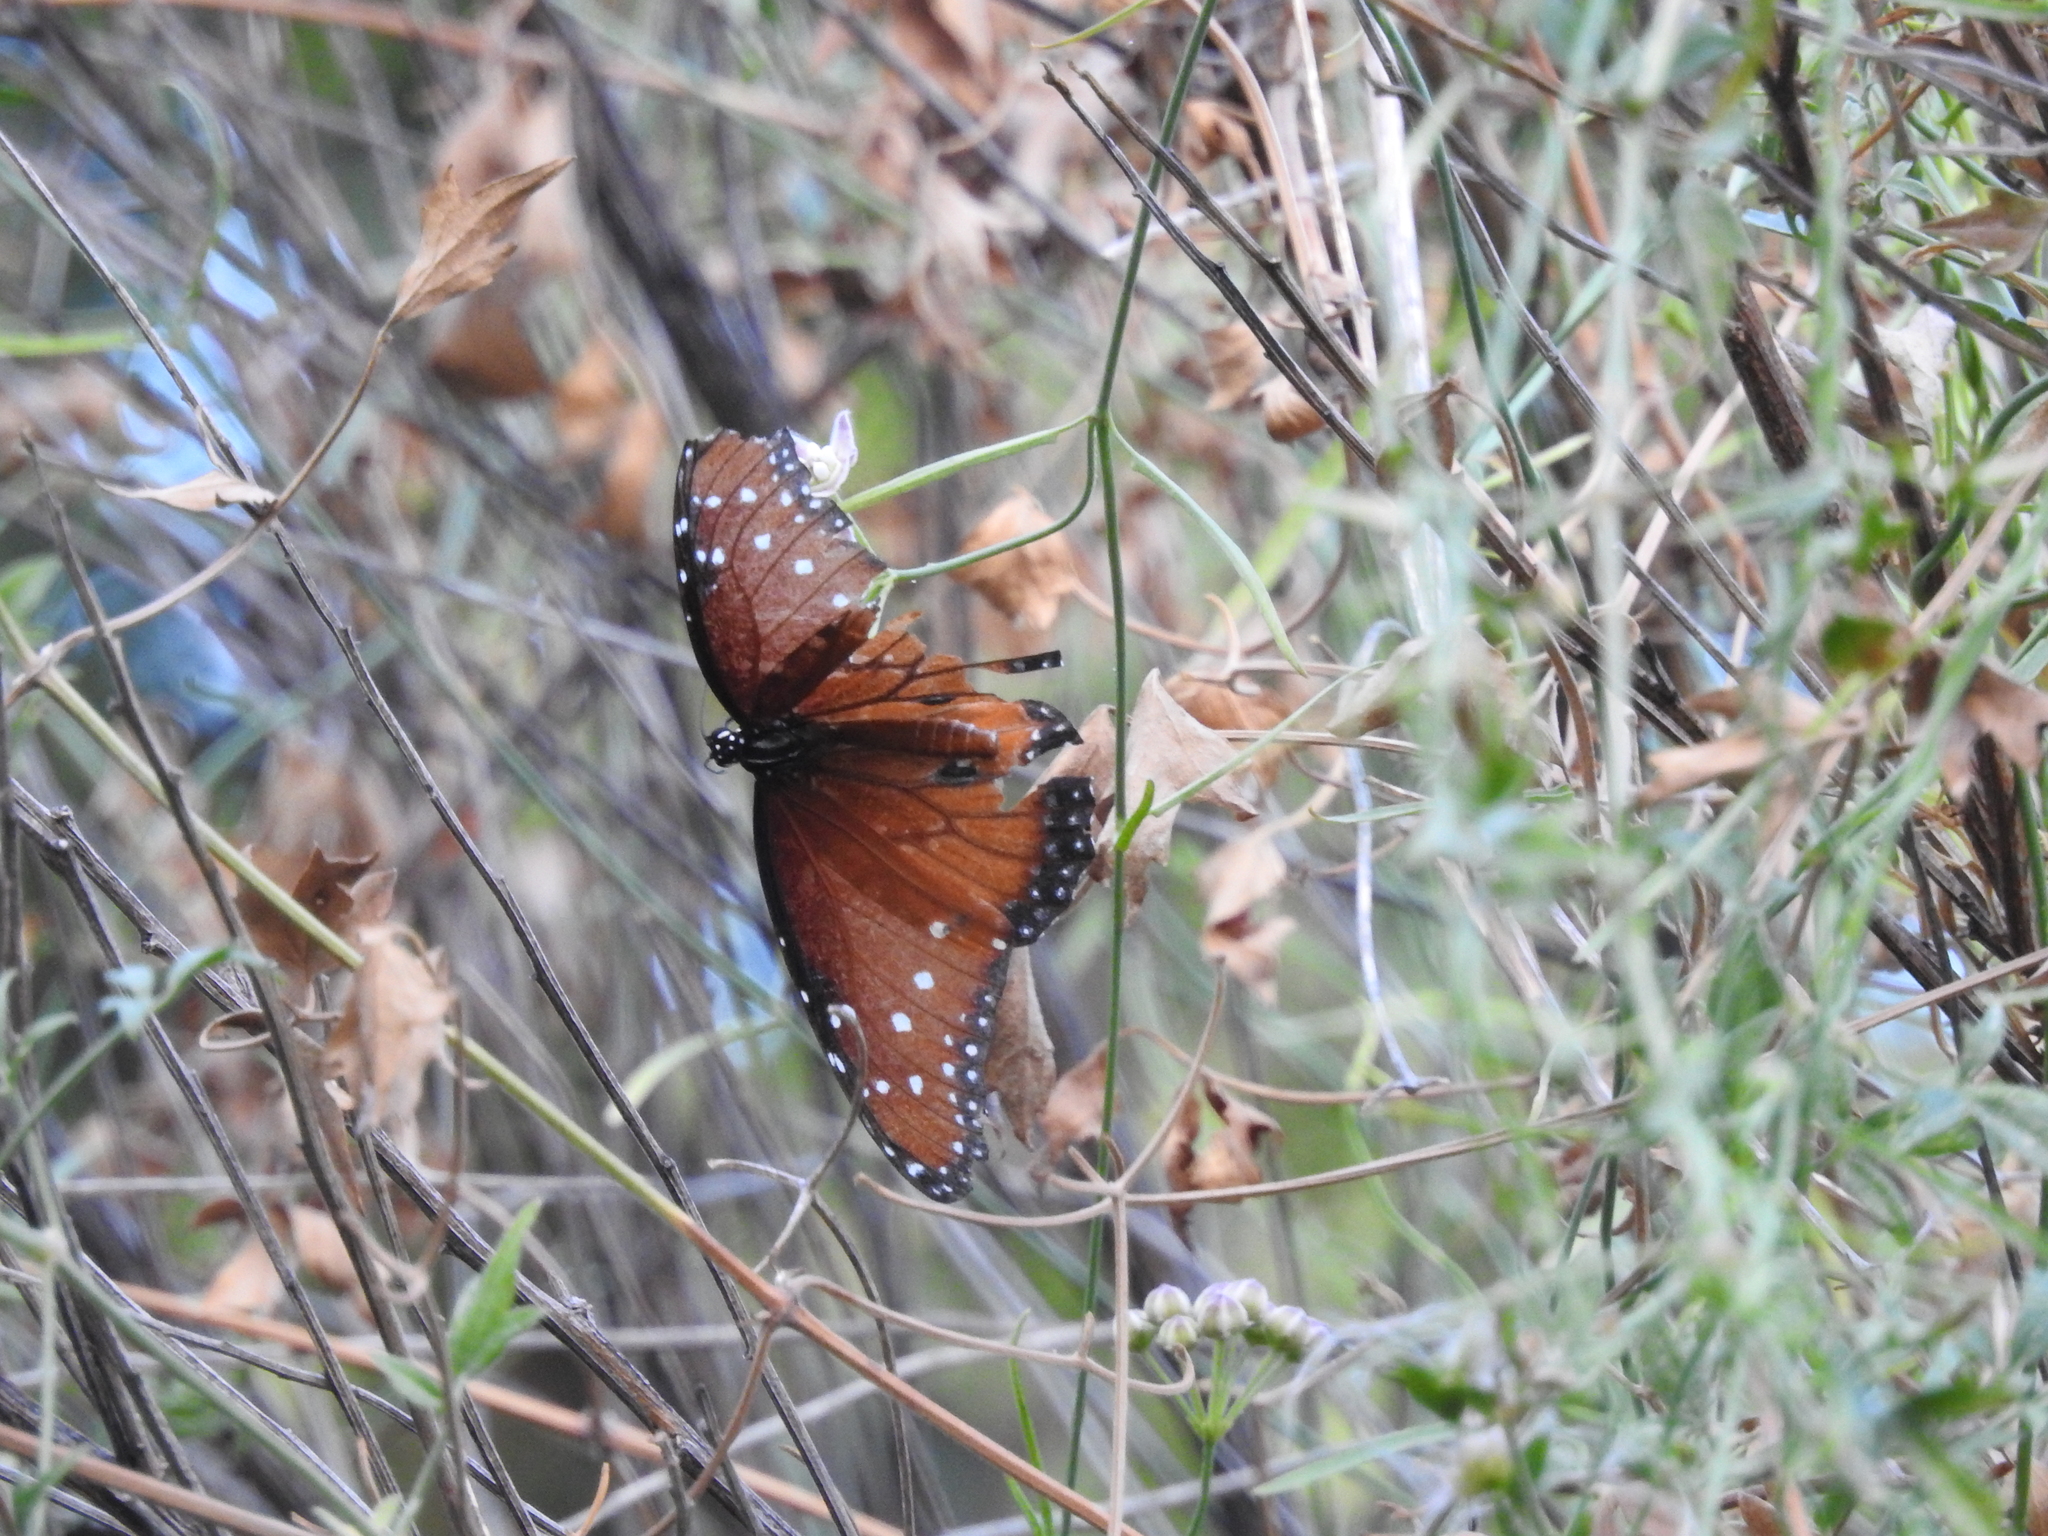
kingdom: Animalia
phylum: Arthropoda
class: Insecta
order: Lepidoptera
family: Nymphalidae
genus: Danaus
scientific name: Danaus gilippus
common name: Queen
